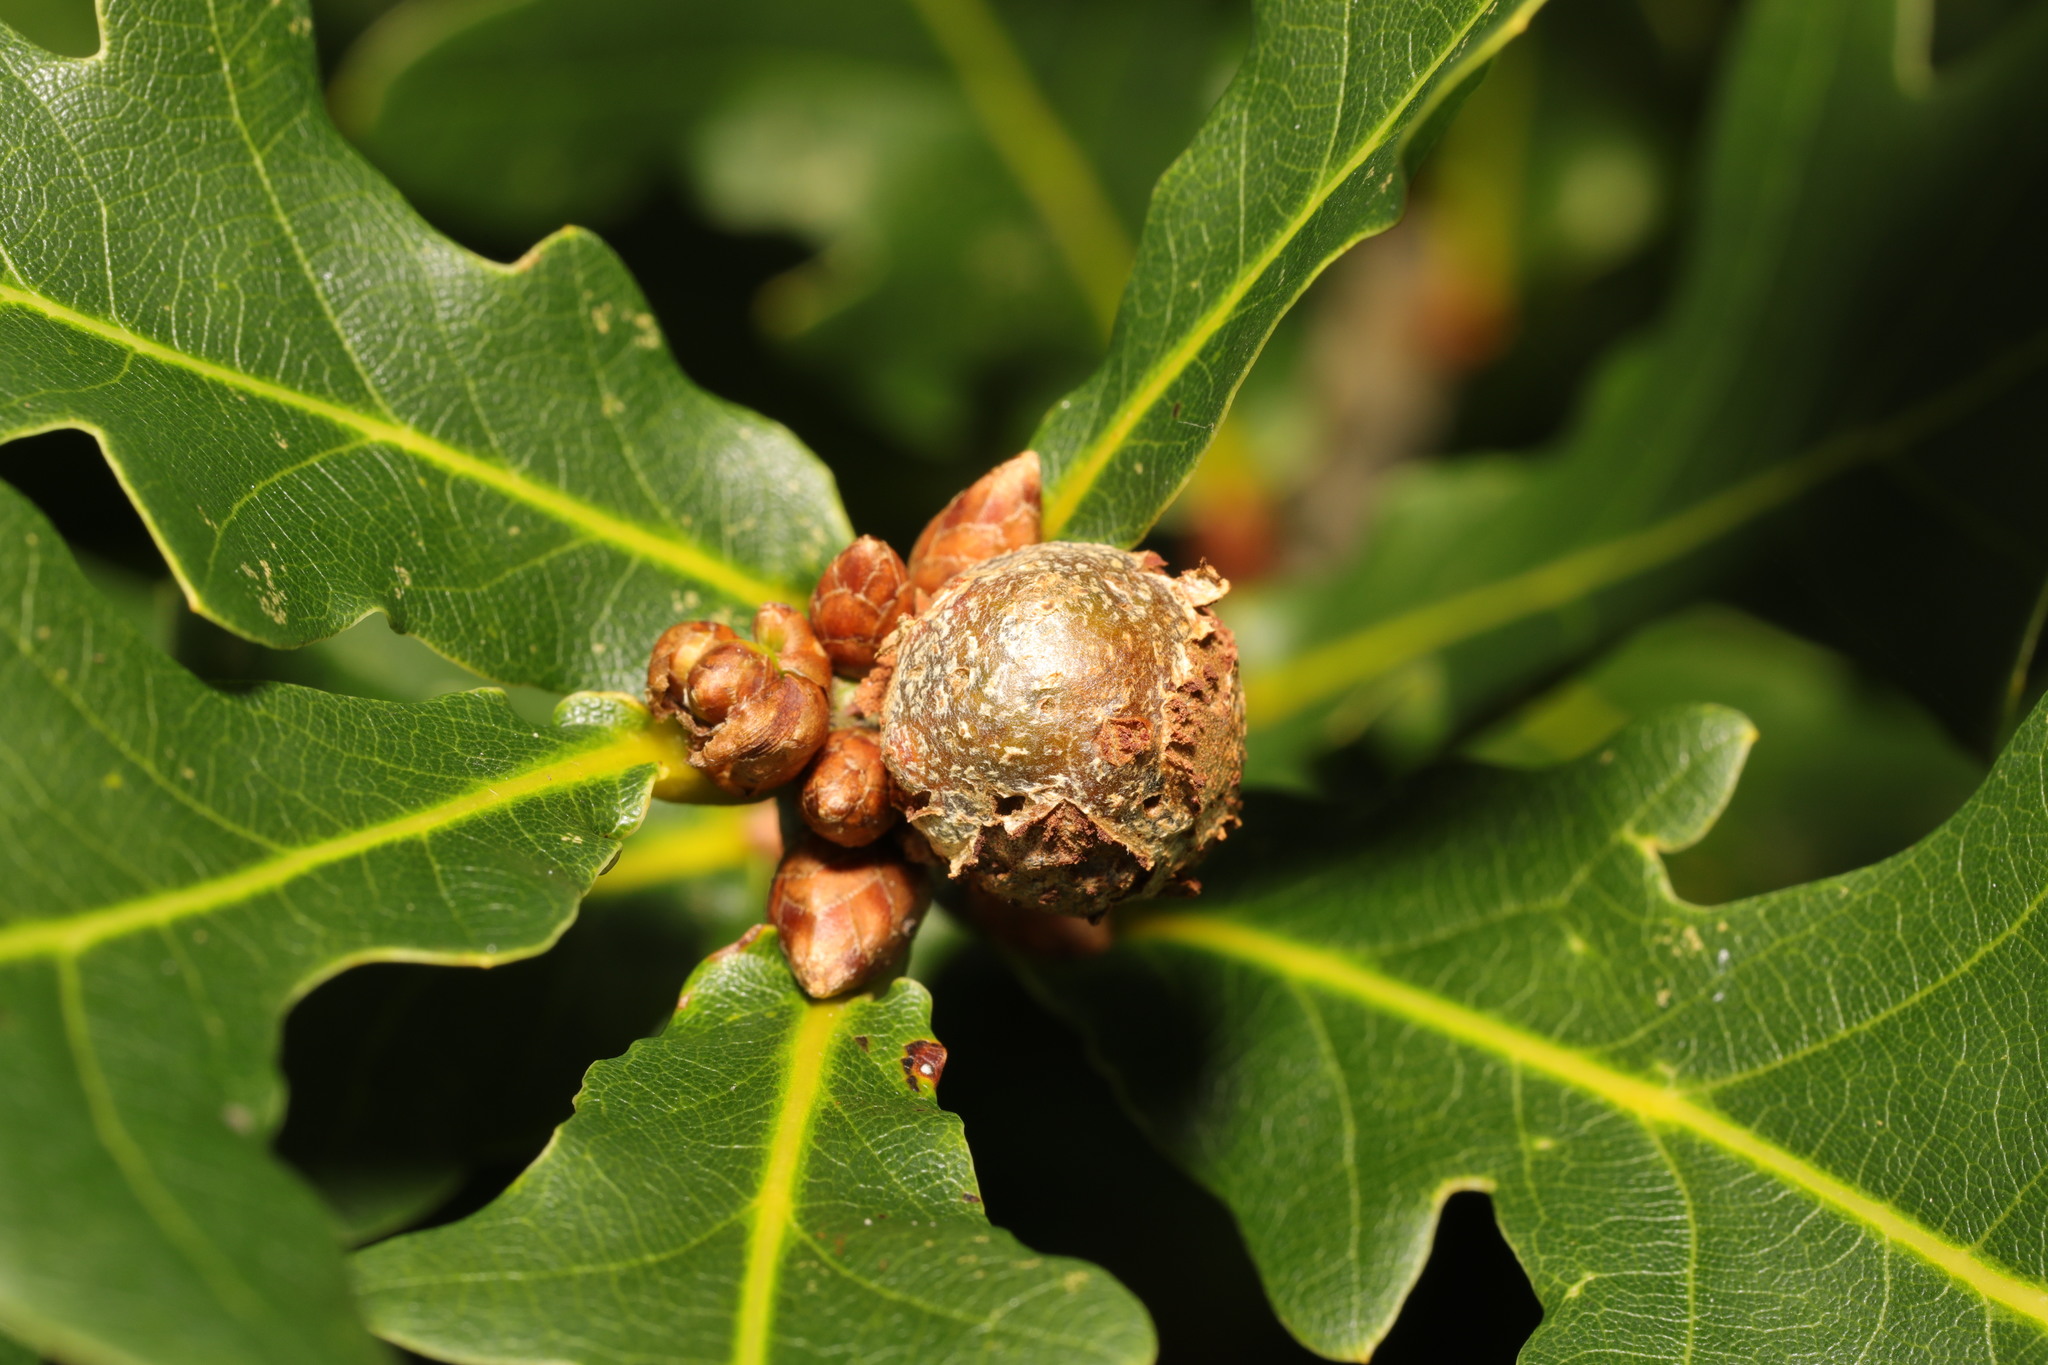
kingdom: Animalia
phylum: Arthropoda
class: Insecta
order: Hymenoptera
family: Cynipidae
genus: Andricus
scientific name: Andricus lignicolus
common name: Cola-nut gall
